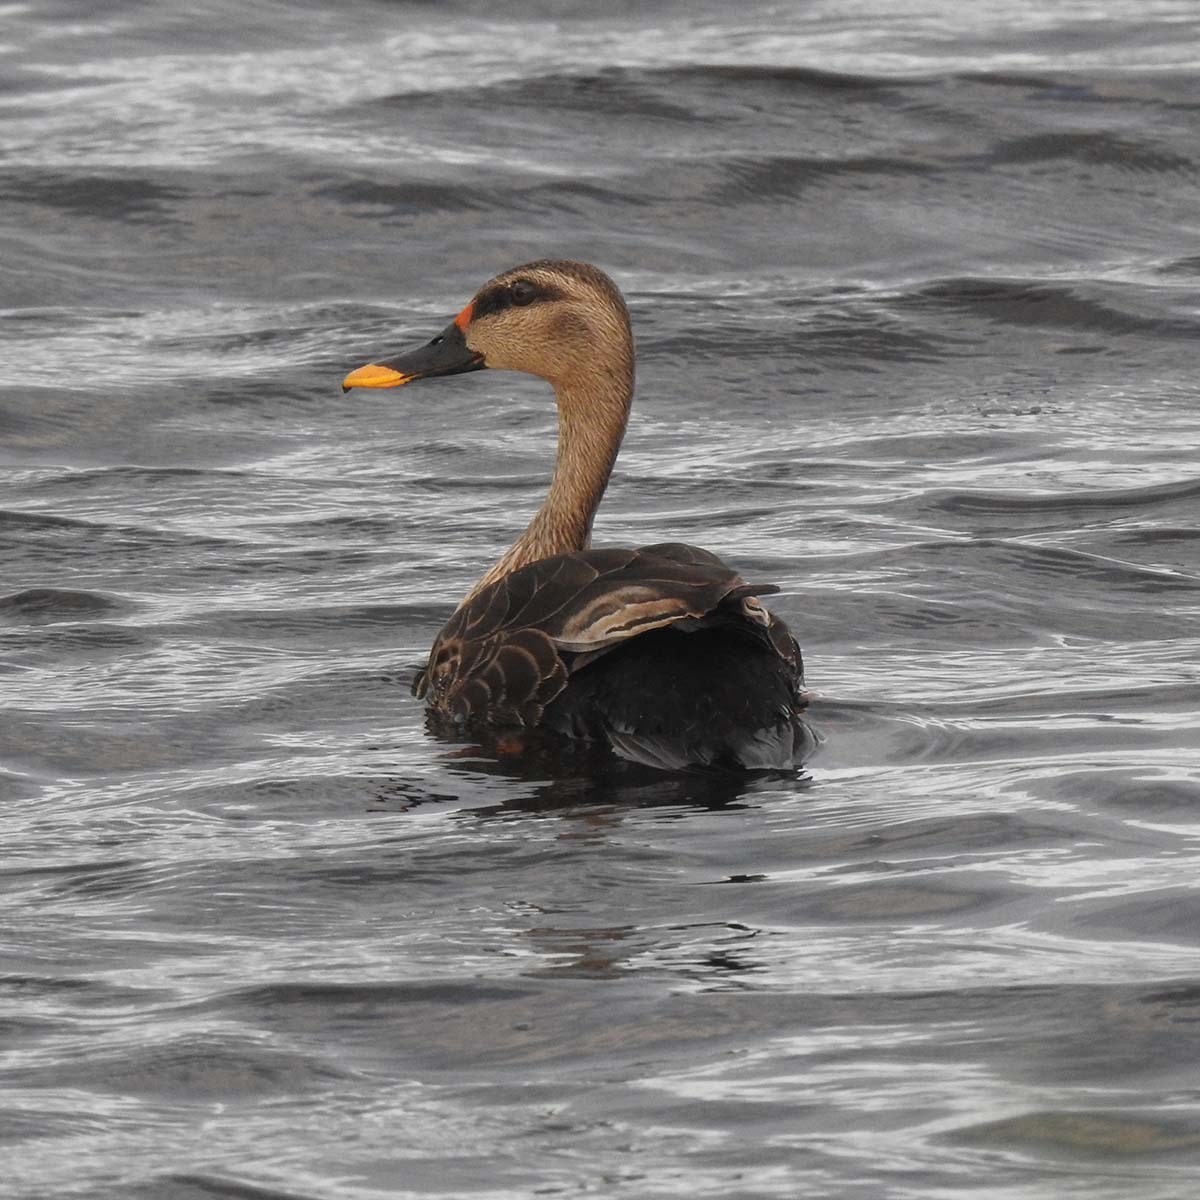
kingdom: Animalia
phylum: Chordata
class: Aves
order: Anseriformes
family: Anatidae
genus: Anas
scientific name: Anas poecilorhyncha
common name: Indian spot-billed duck
